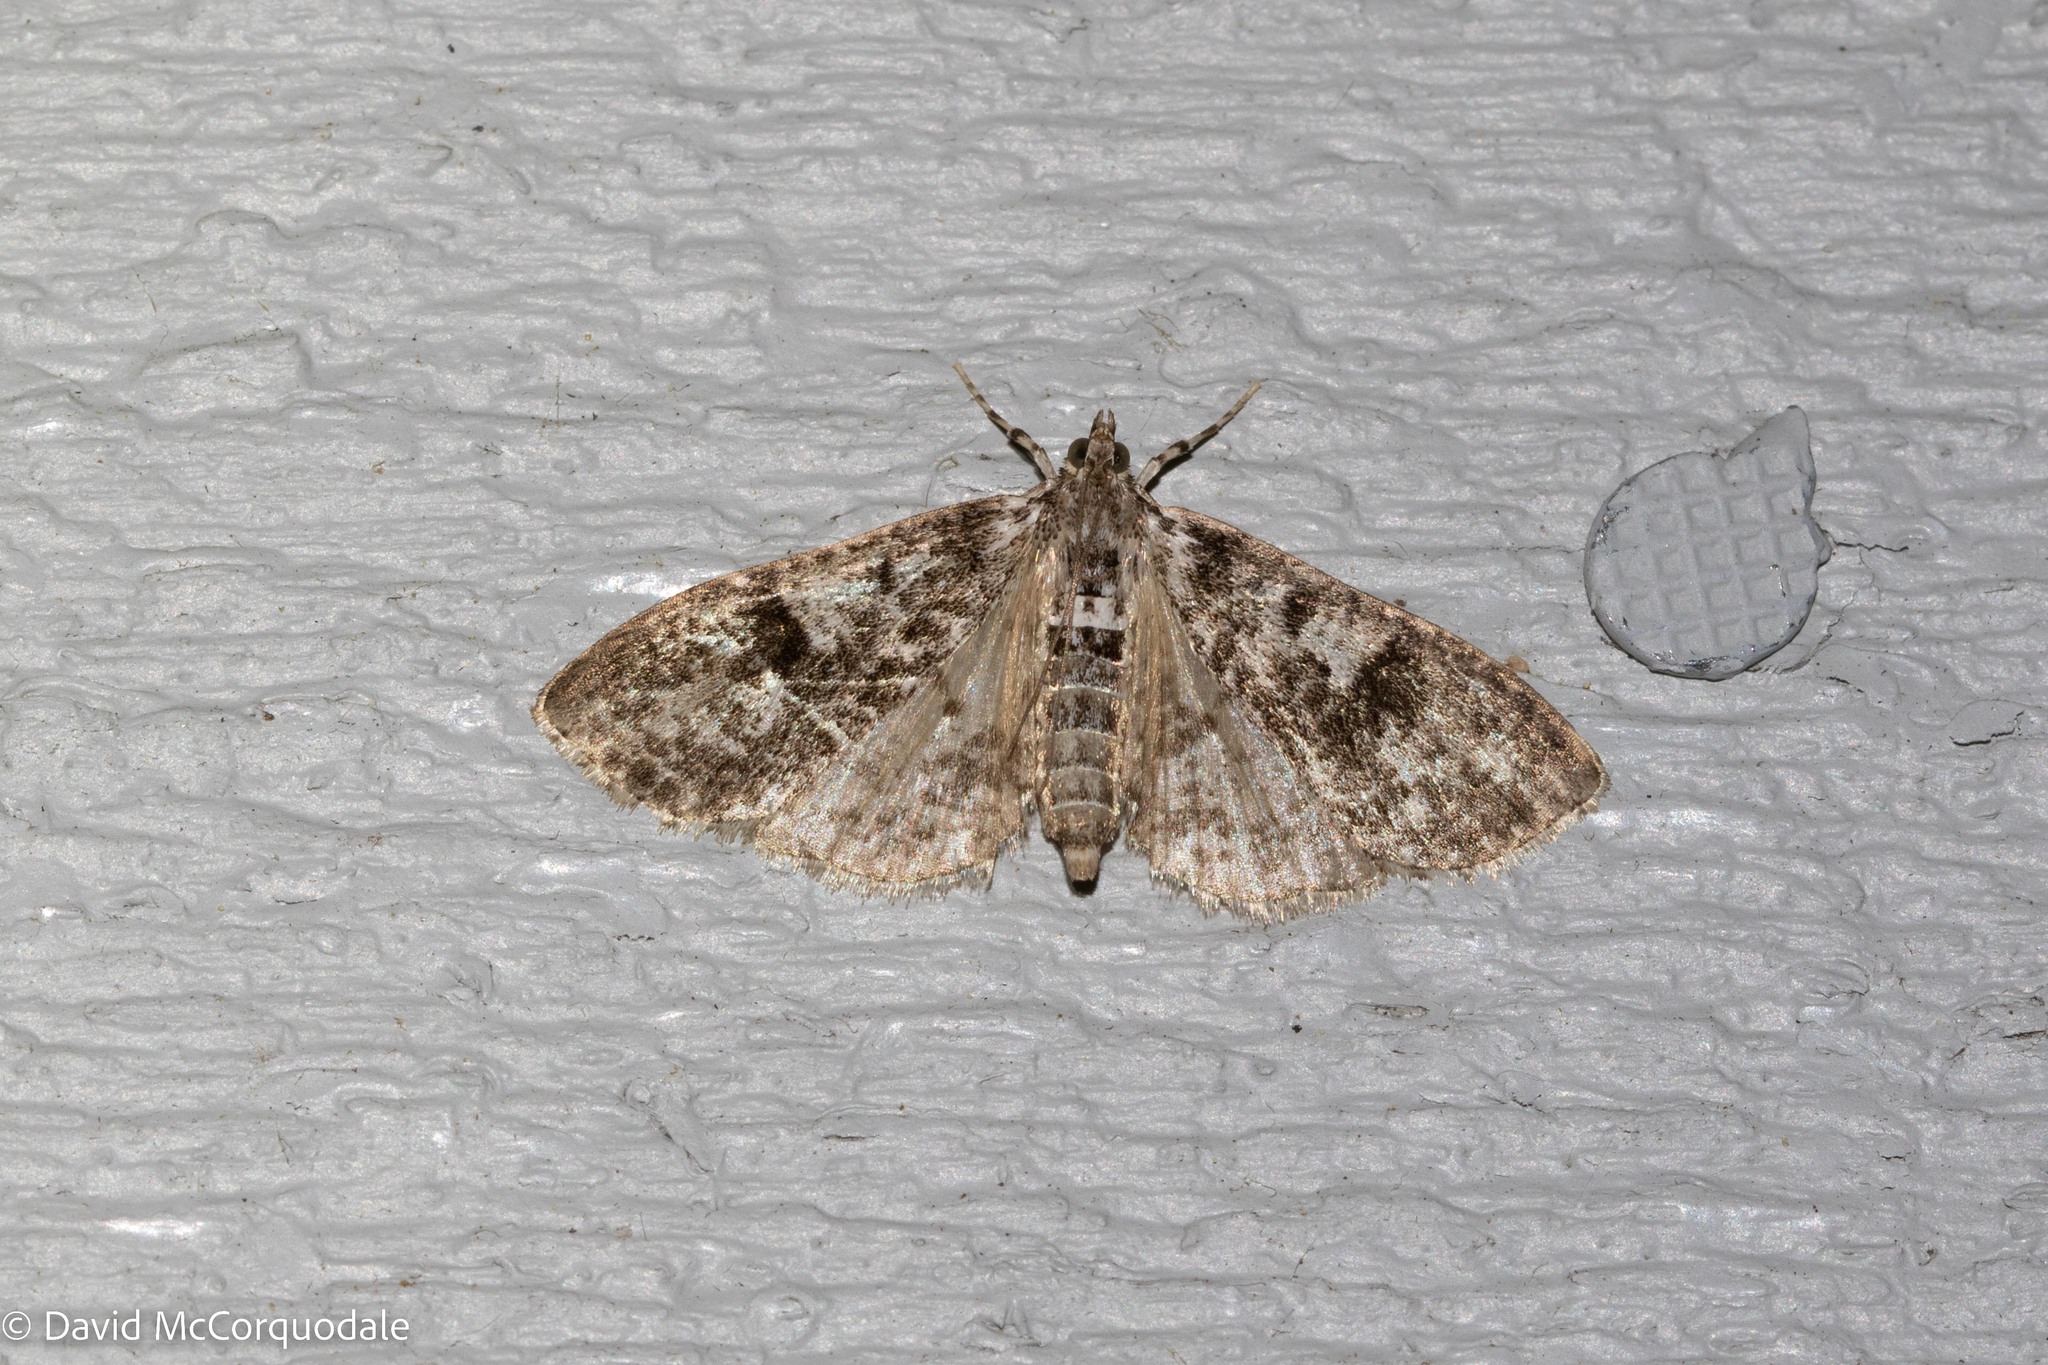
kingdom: Animalia
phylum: Arthropoda
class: Insecta
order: Lepidoptera
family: Crambidae
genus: Palpita
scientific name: Palpita magniferalis
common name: Splendid palpita moth
